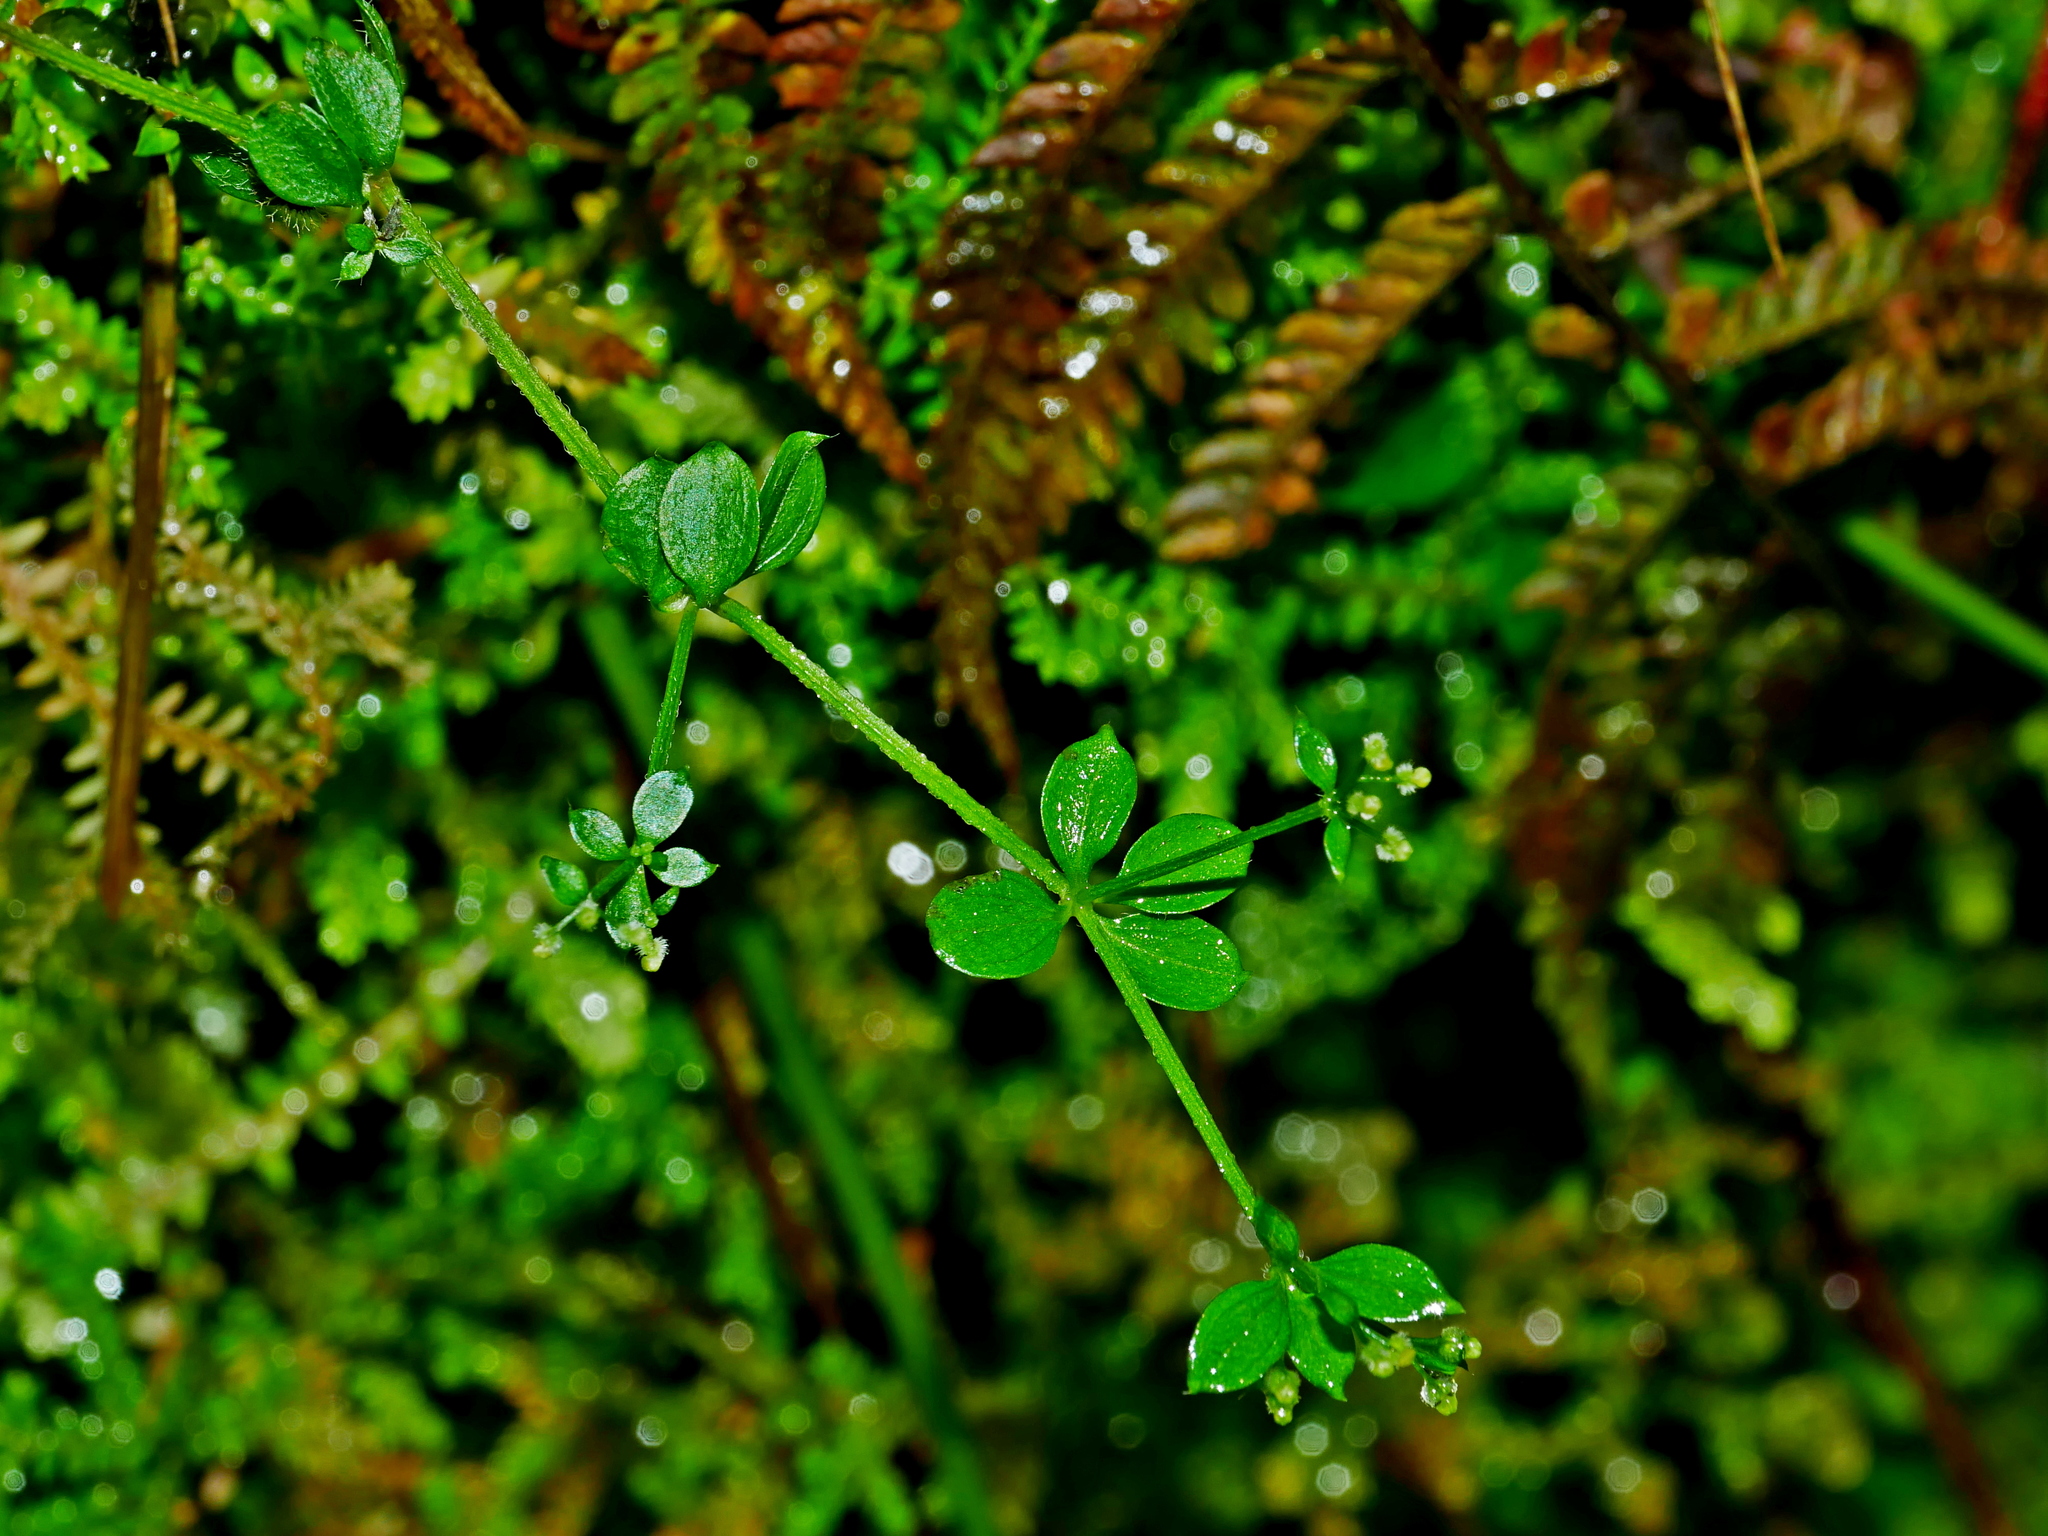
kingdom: Plantae
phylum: Tracheophyta
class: Magnoliopsida
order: Gentianales
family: Rubiaceae
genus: Galium
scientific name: Galium formosense
